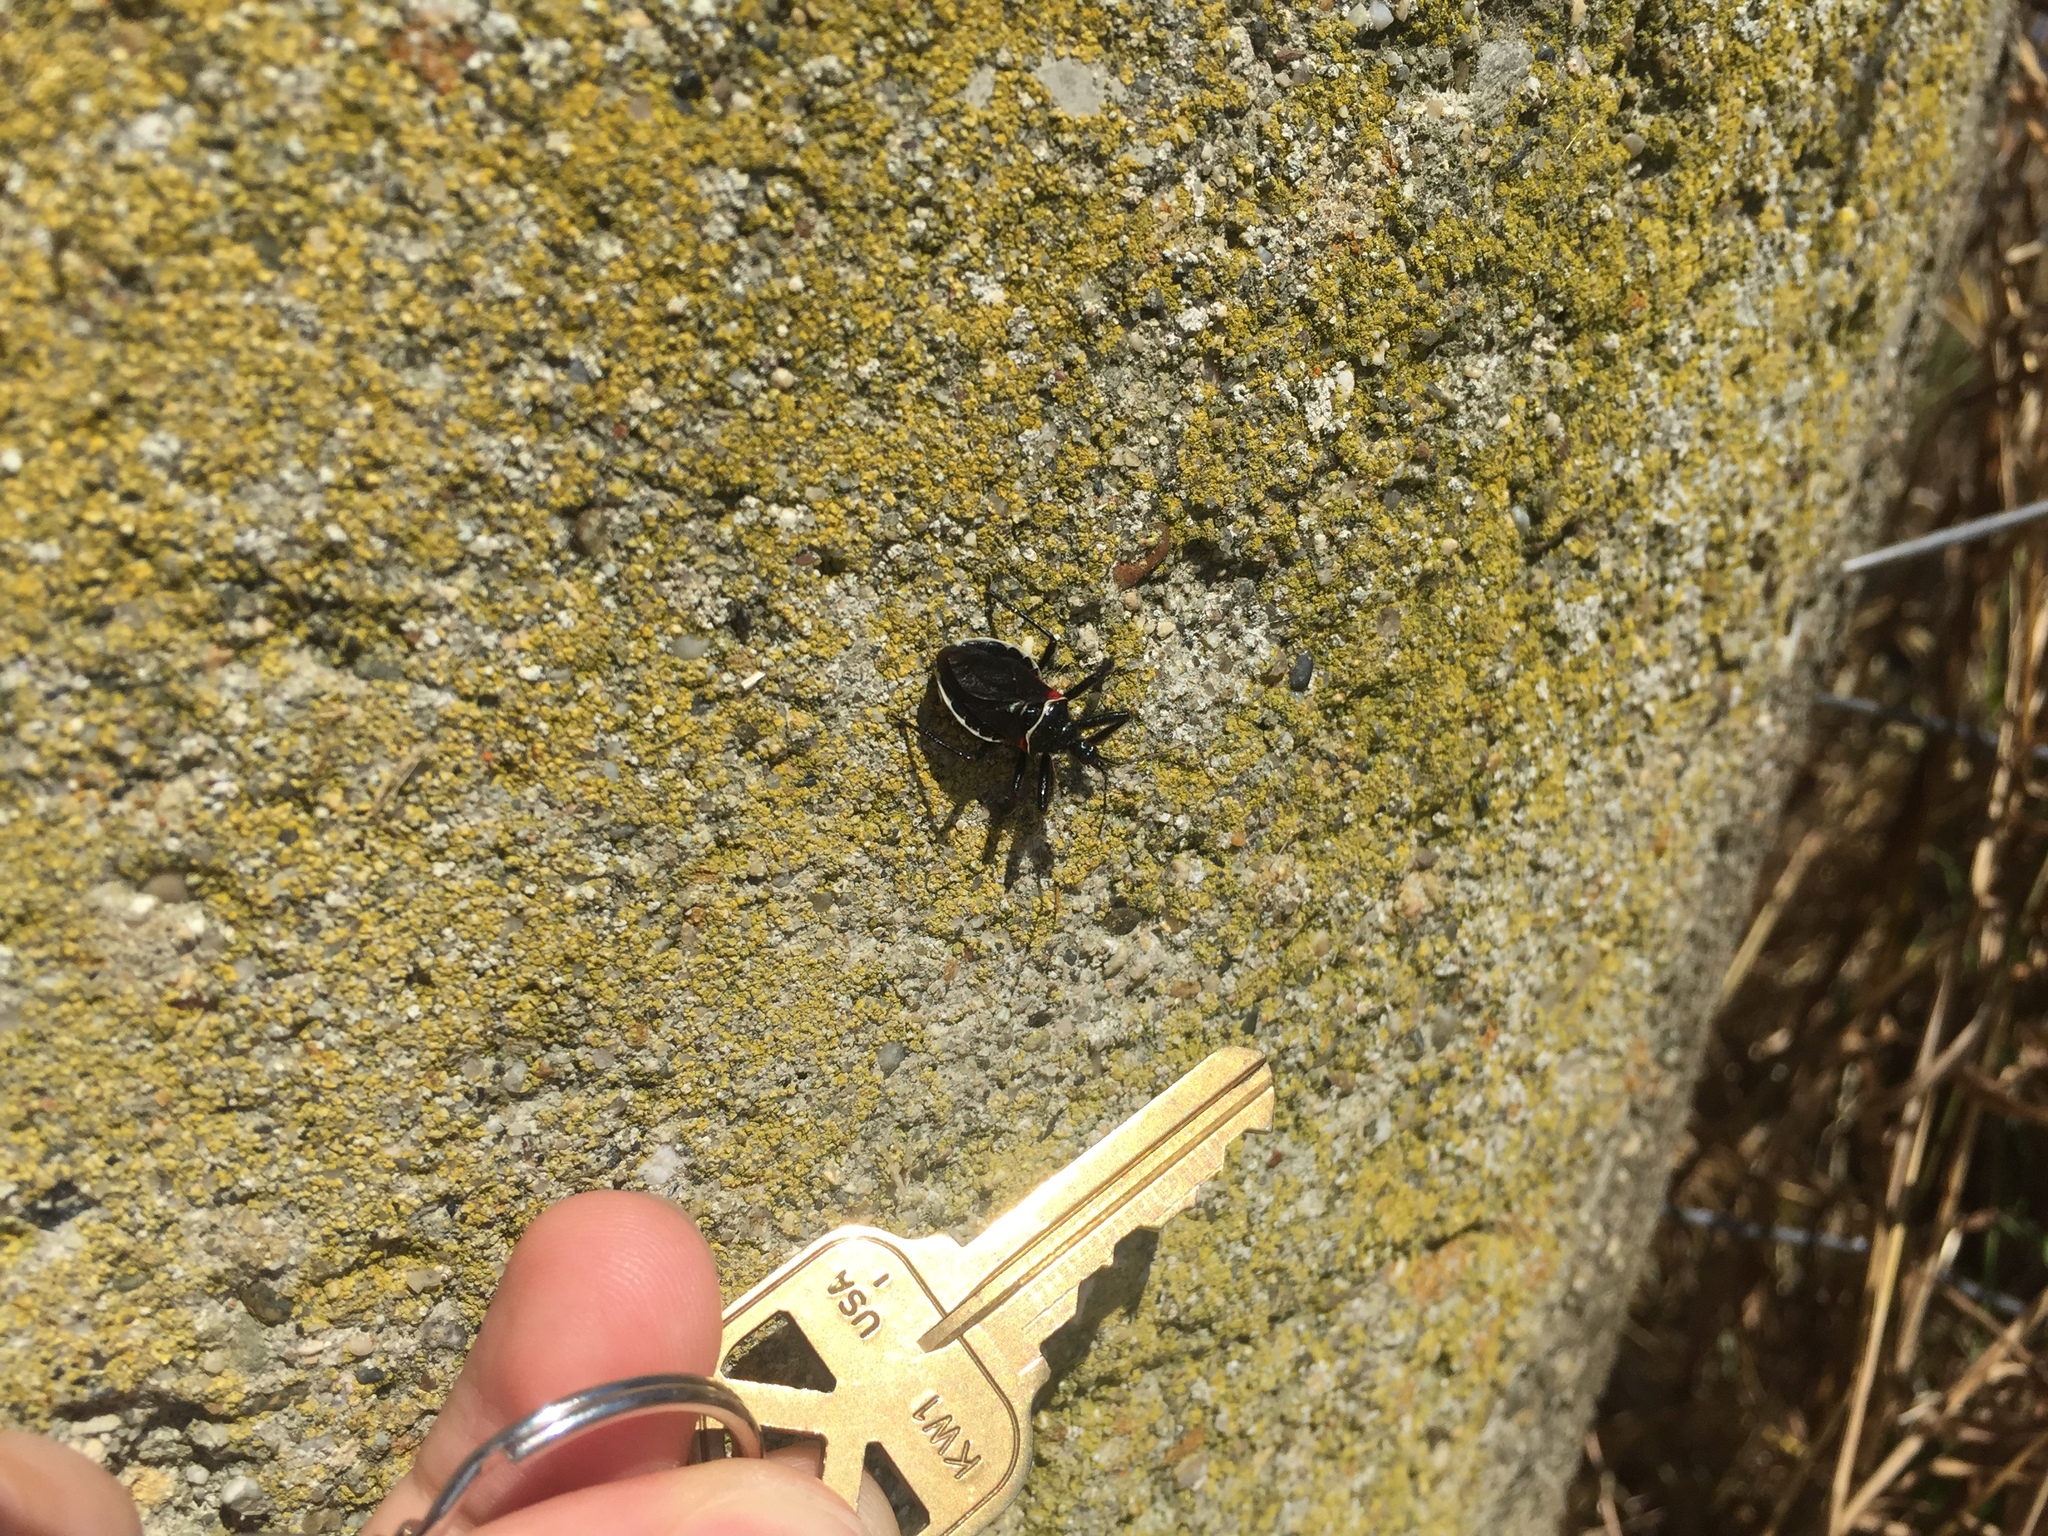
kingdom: Animalia
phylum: Arthropoda
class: Insecta
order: Hemiptera
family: Reduviidae
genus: Apiomerus
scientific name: Apiomerus californicus
